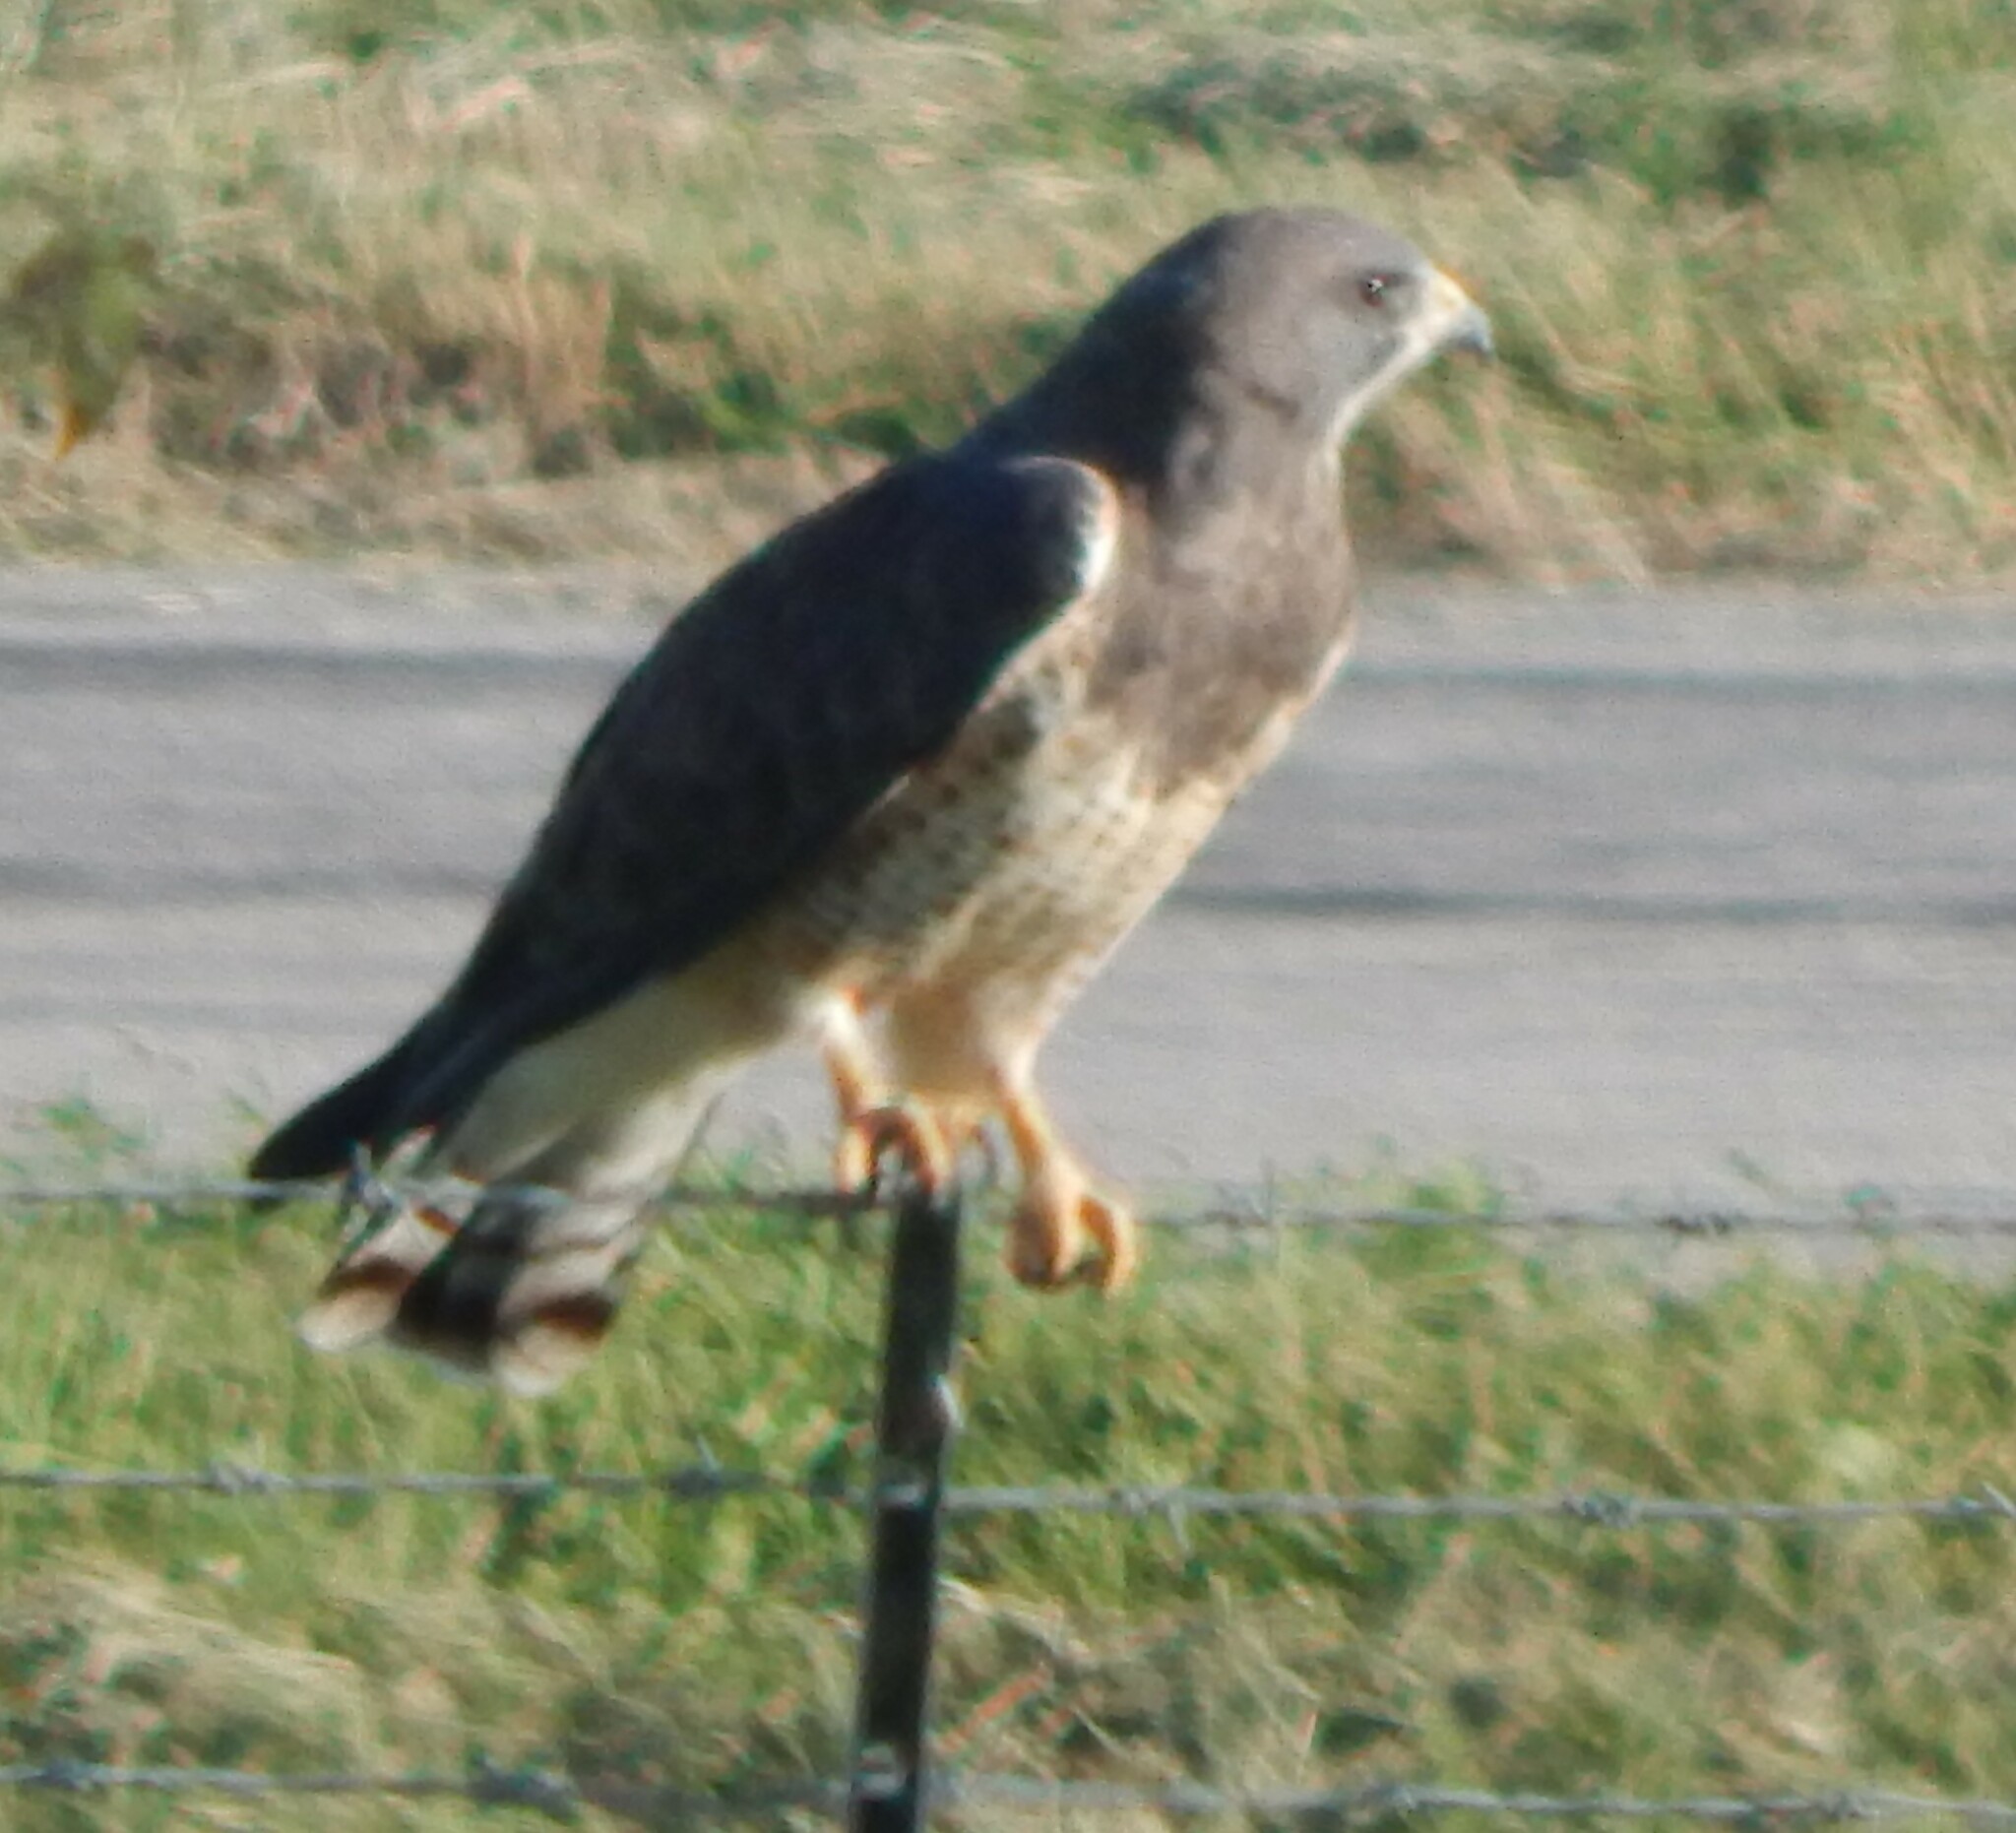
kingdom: Animalia
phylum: Chordata
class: Aves
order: Accipitriformes
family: Accipitridae
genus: Buteo
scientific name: Buteo swainsoni
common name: Swainson's hawk
